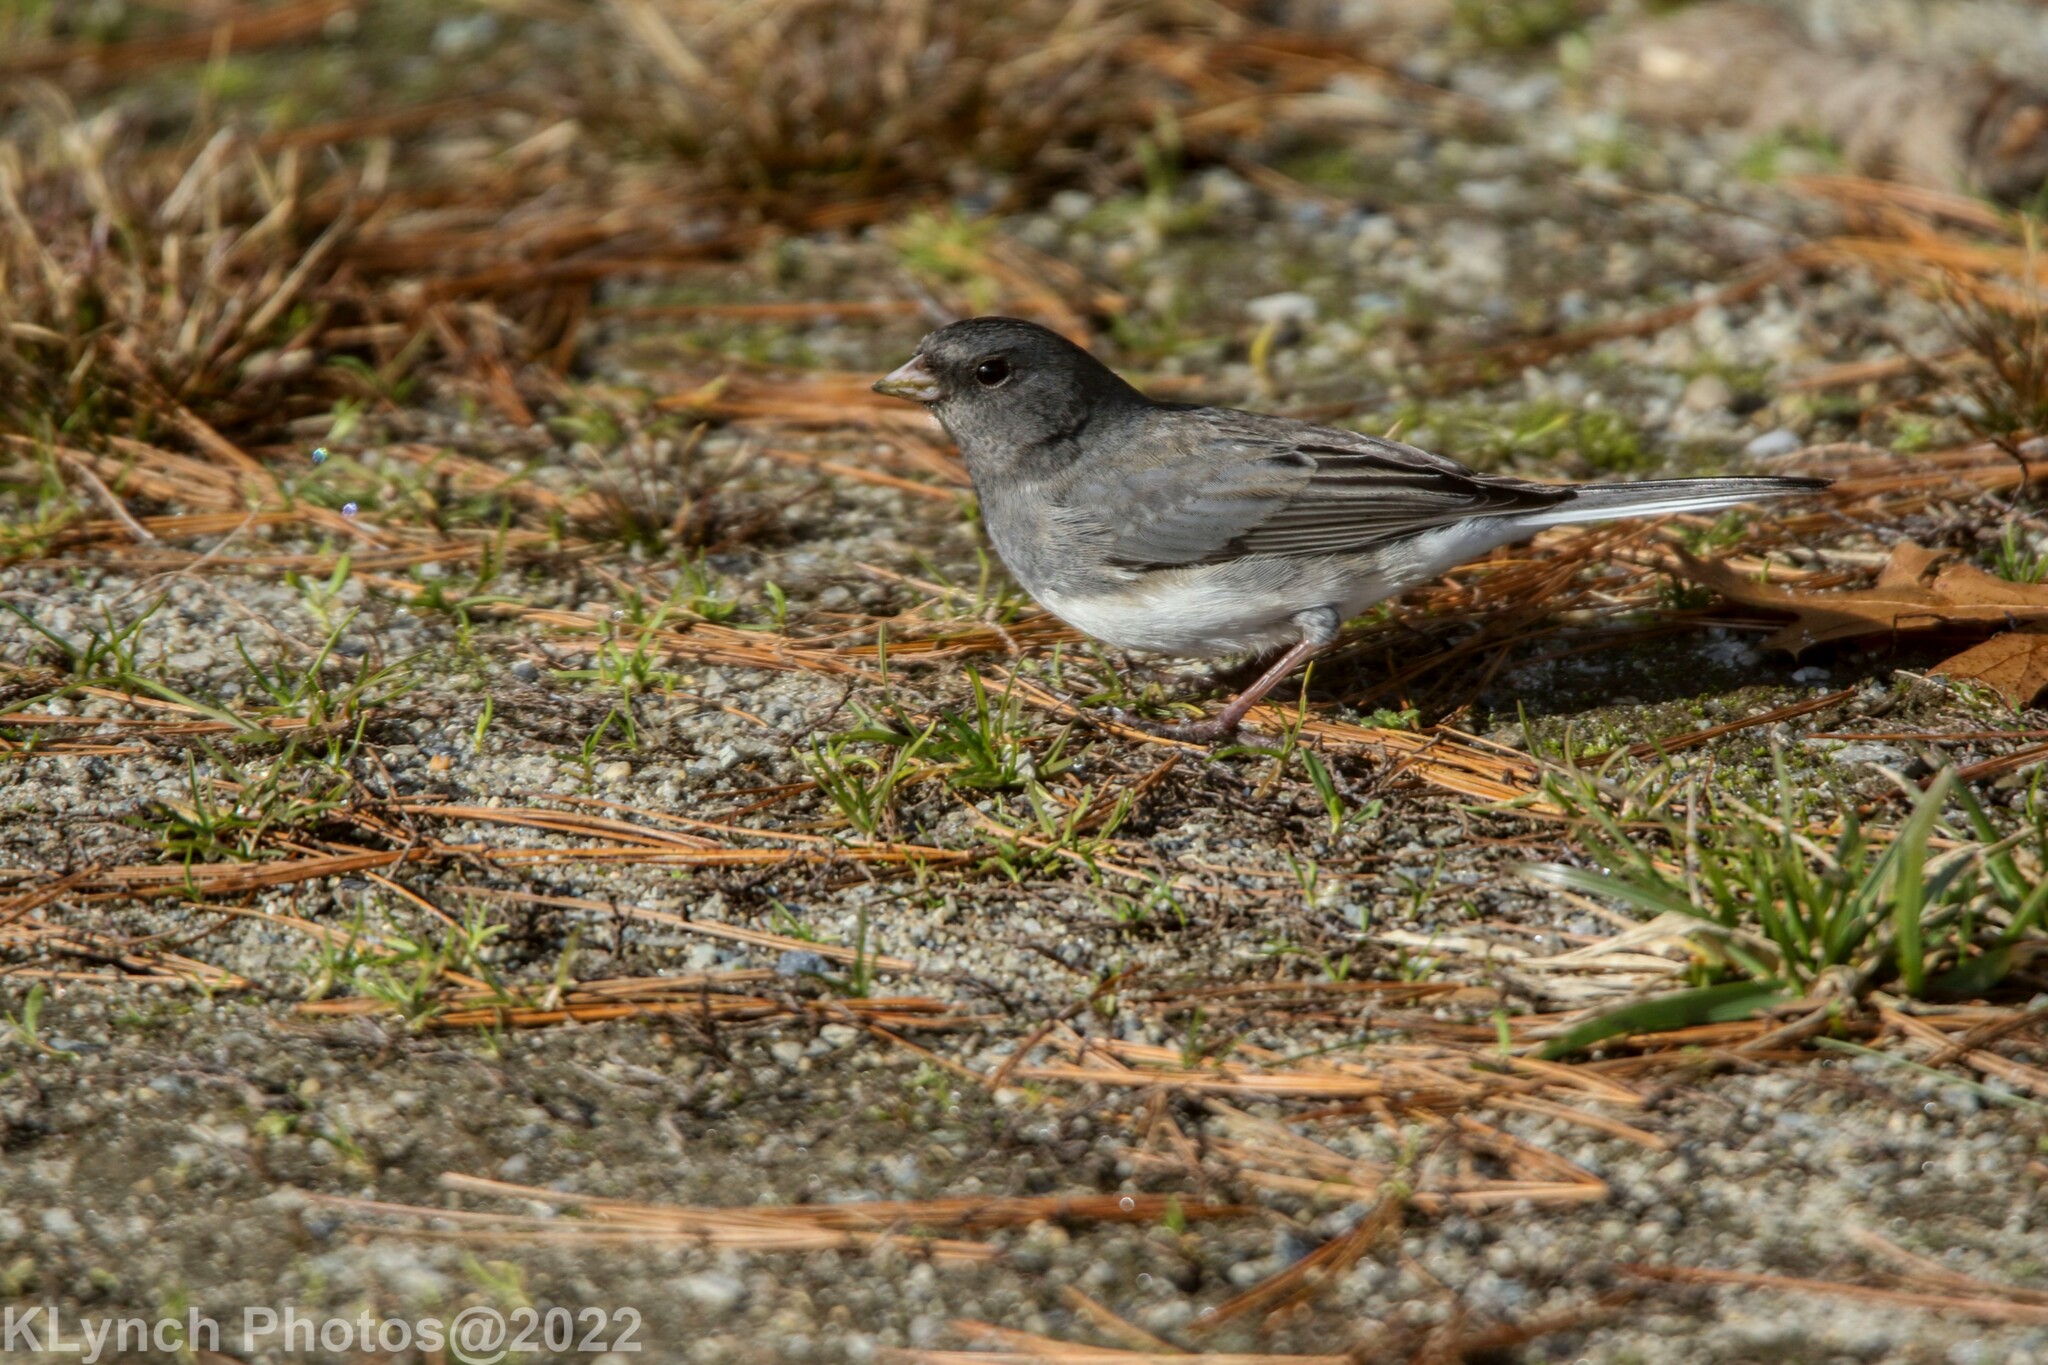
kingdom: Animalia
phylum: Chordata
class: Aves
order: Passeriformes
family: Passerellidae
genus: Junco
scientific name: Junco hyemalis
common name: Dark-eyed junco
